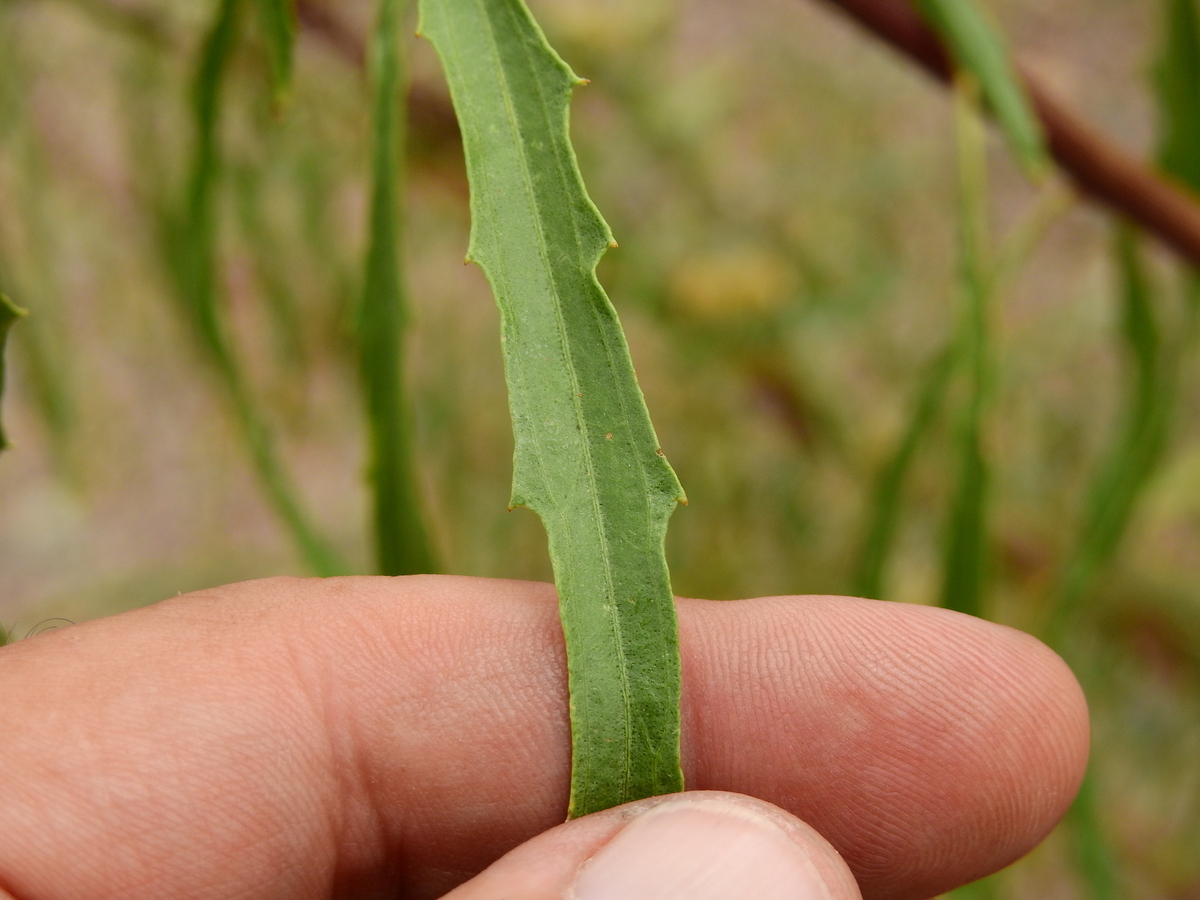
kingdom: Plantae
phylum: Tracheophyta
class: Magnoliopsida
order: Asterales
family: Asteraceae
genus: Baccharis
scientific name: Baccharis salicifolia
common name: Sticky baccharis
